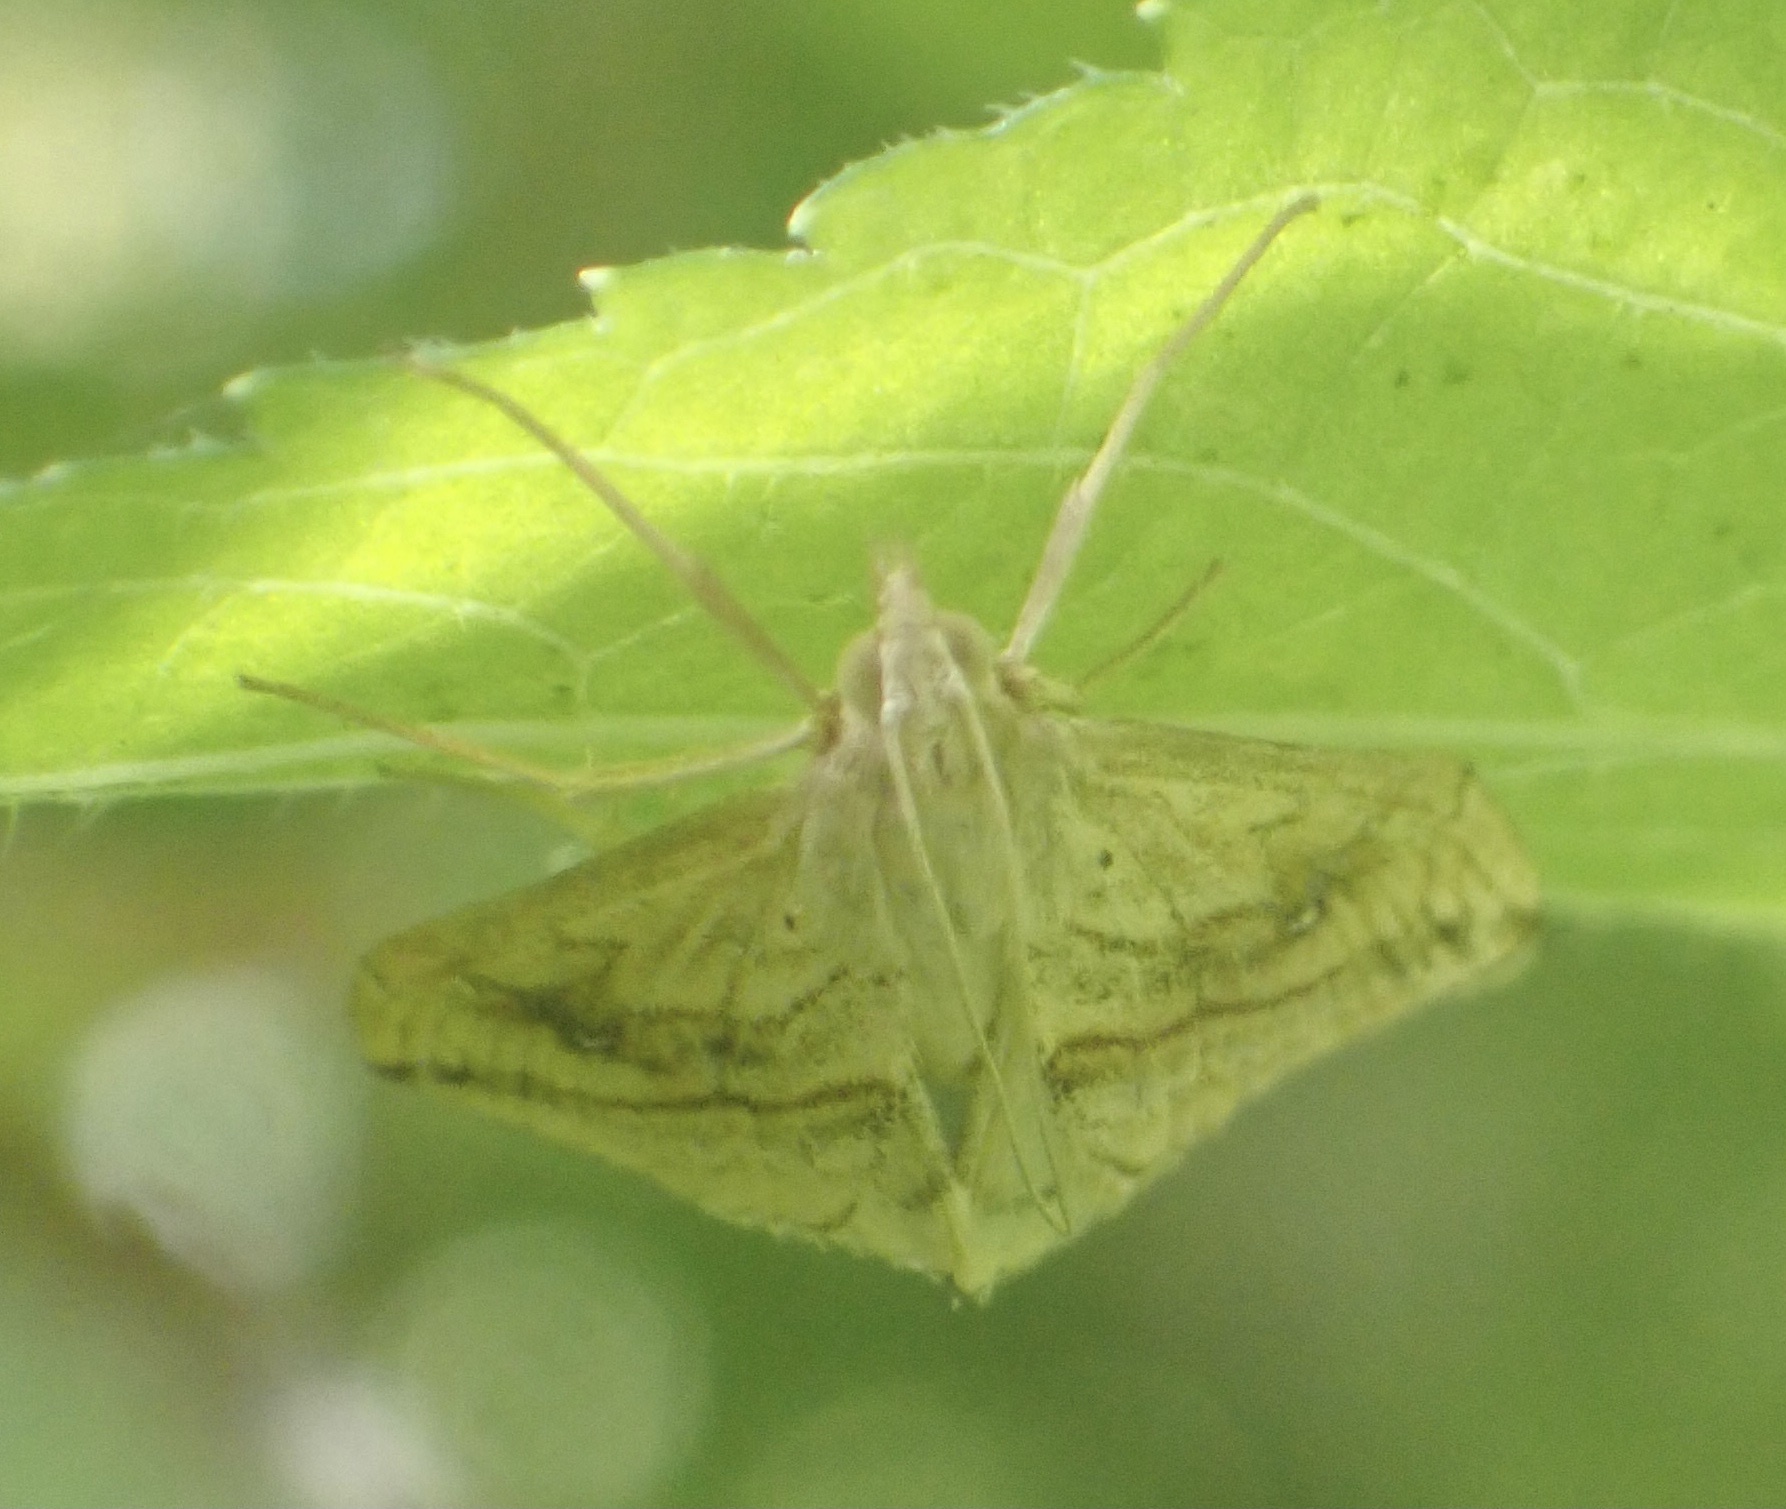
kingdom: Animalia
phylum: Arthropoda
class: Insecta
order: Lepidoptera
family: Crambidae
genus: Evergestis
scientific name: Evergestis forficalis
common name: Garden pebble
